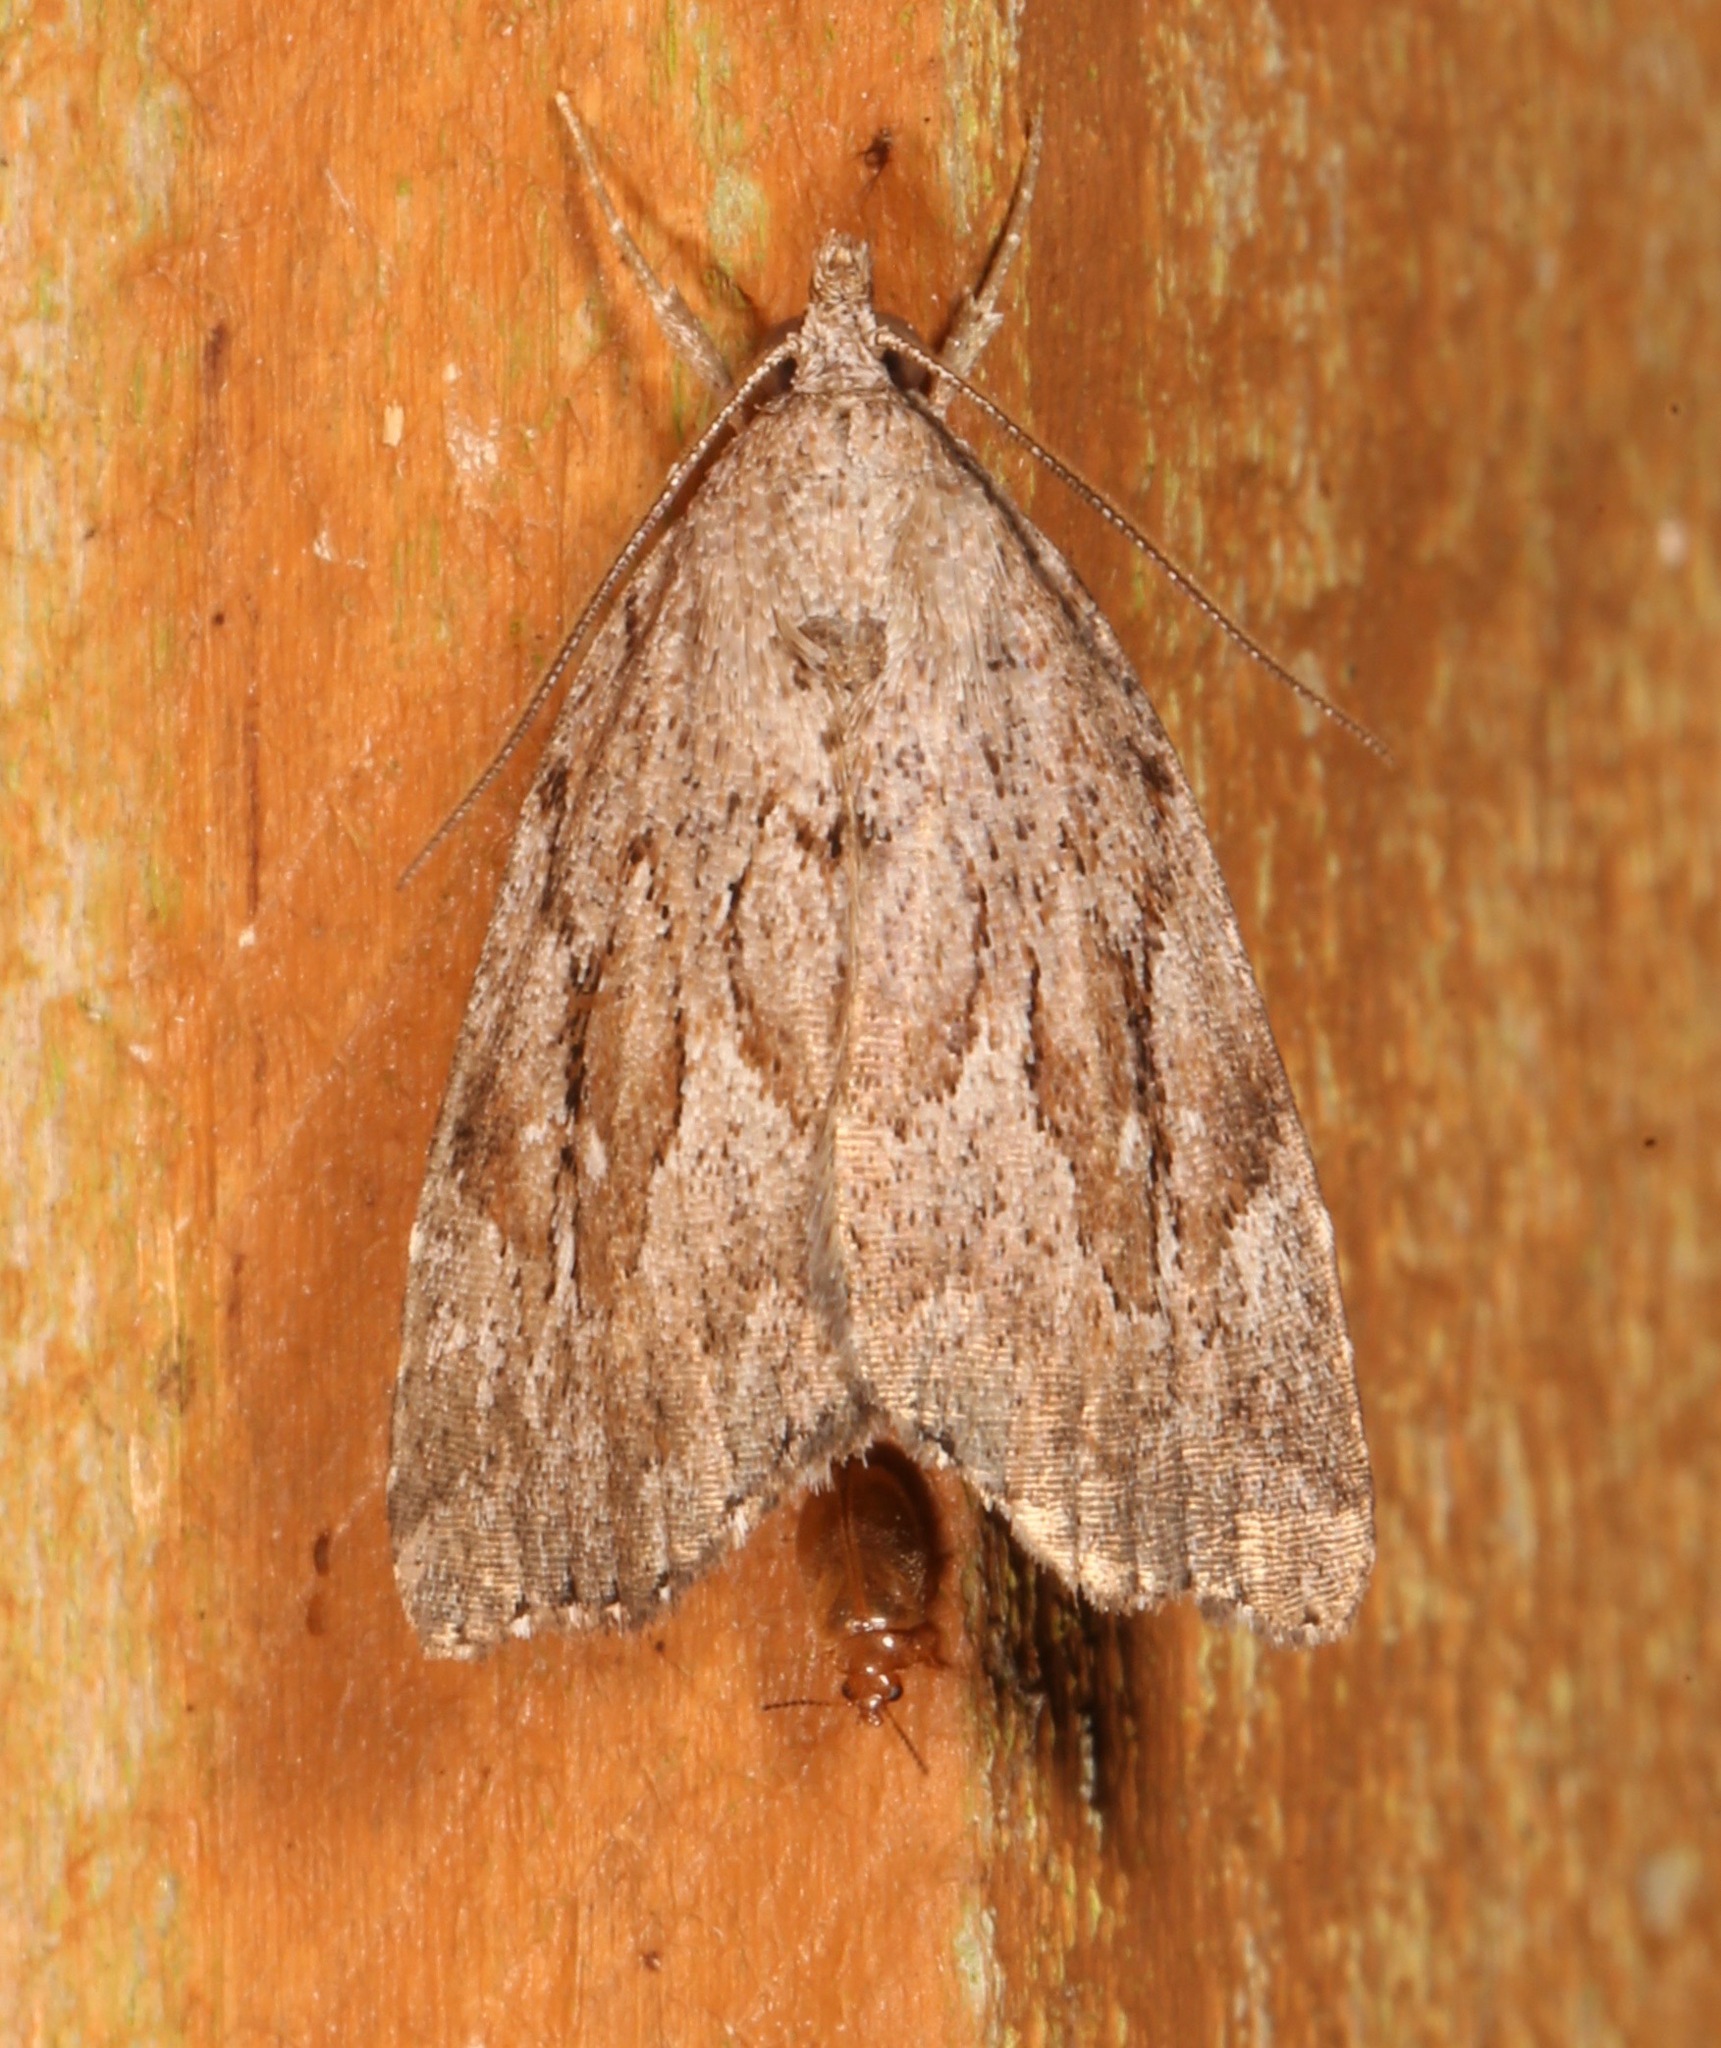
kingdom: Animalia
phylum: Arthropoda
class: Insecta
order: Lepidoptera
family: Erebidae
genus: Cutina
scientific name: Cutina albopunctella
